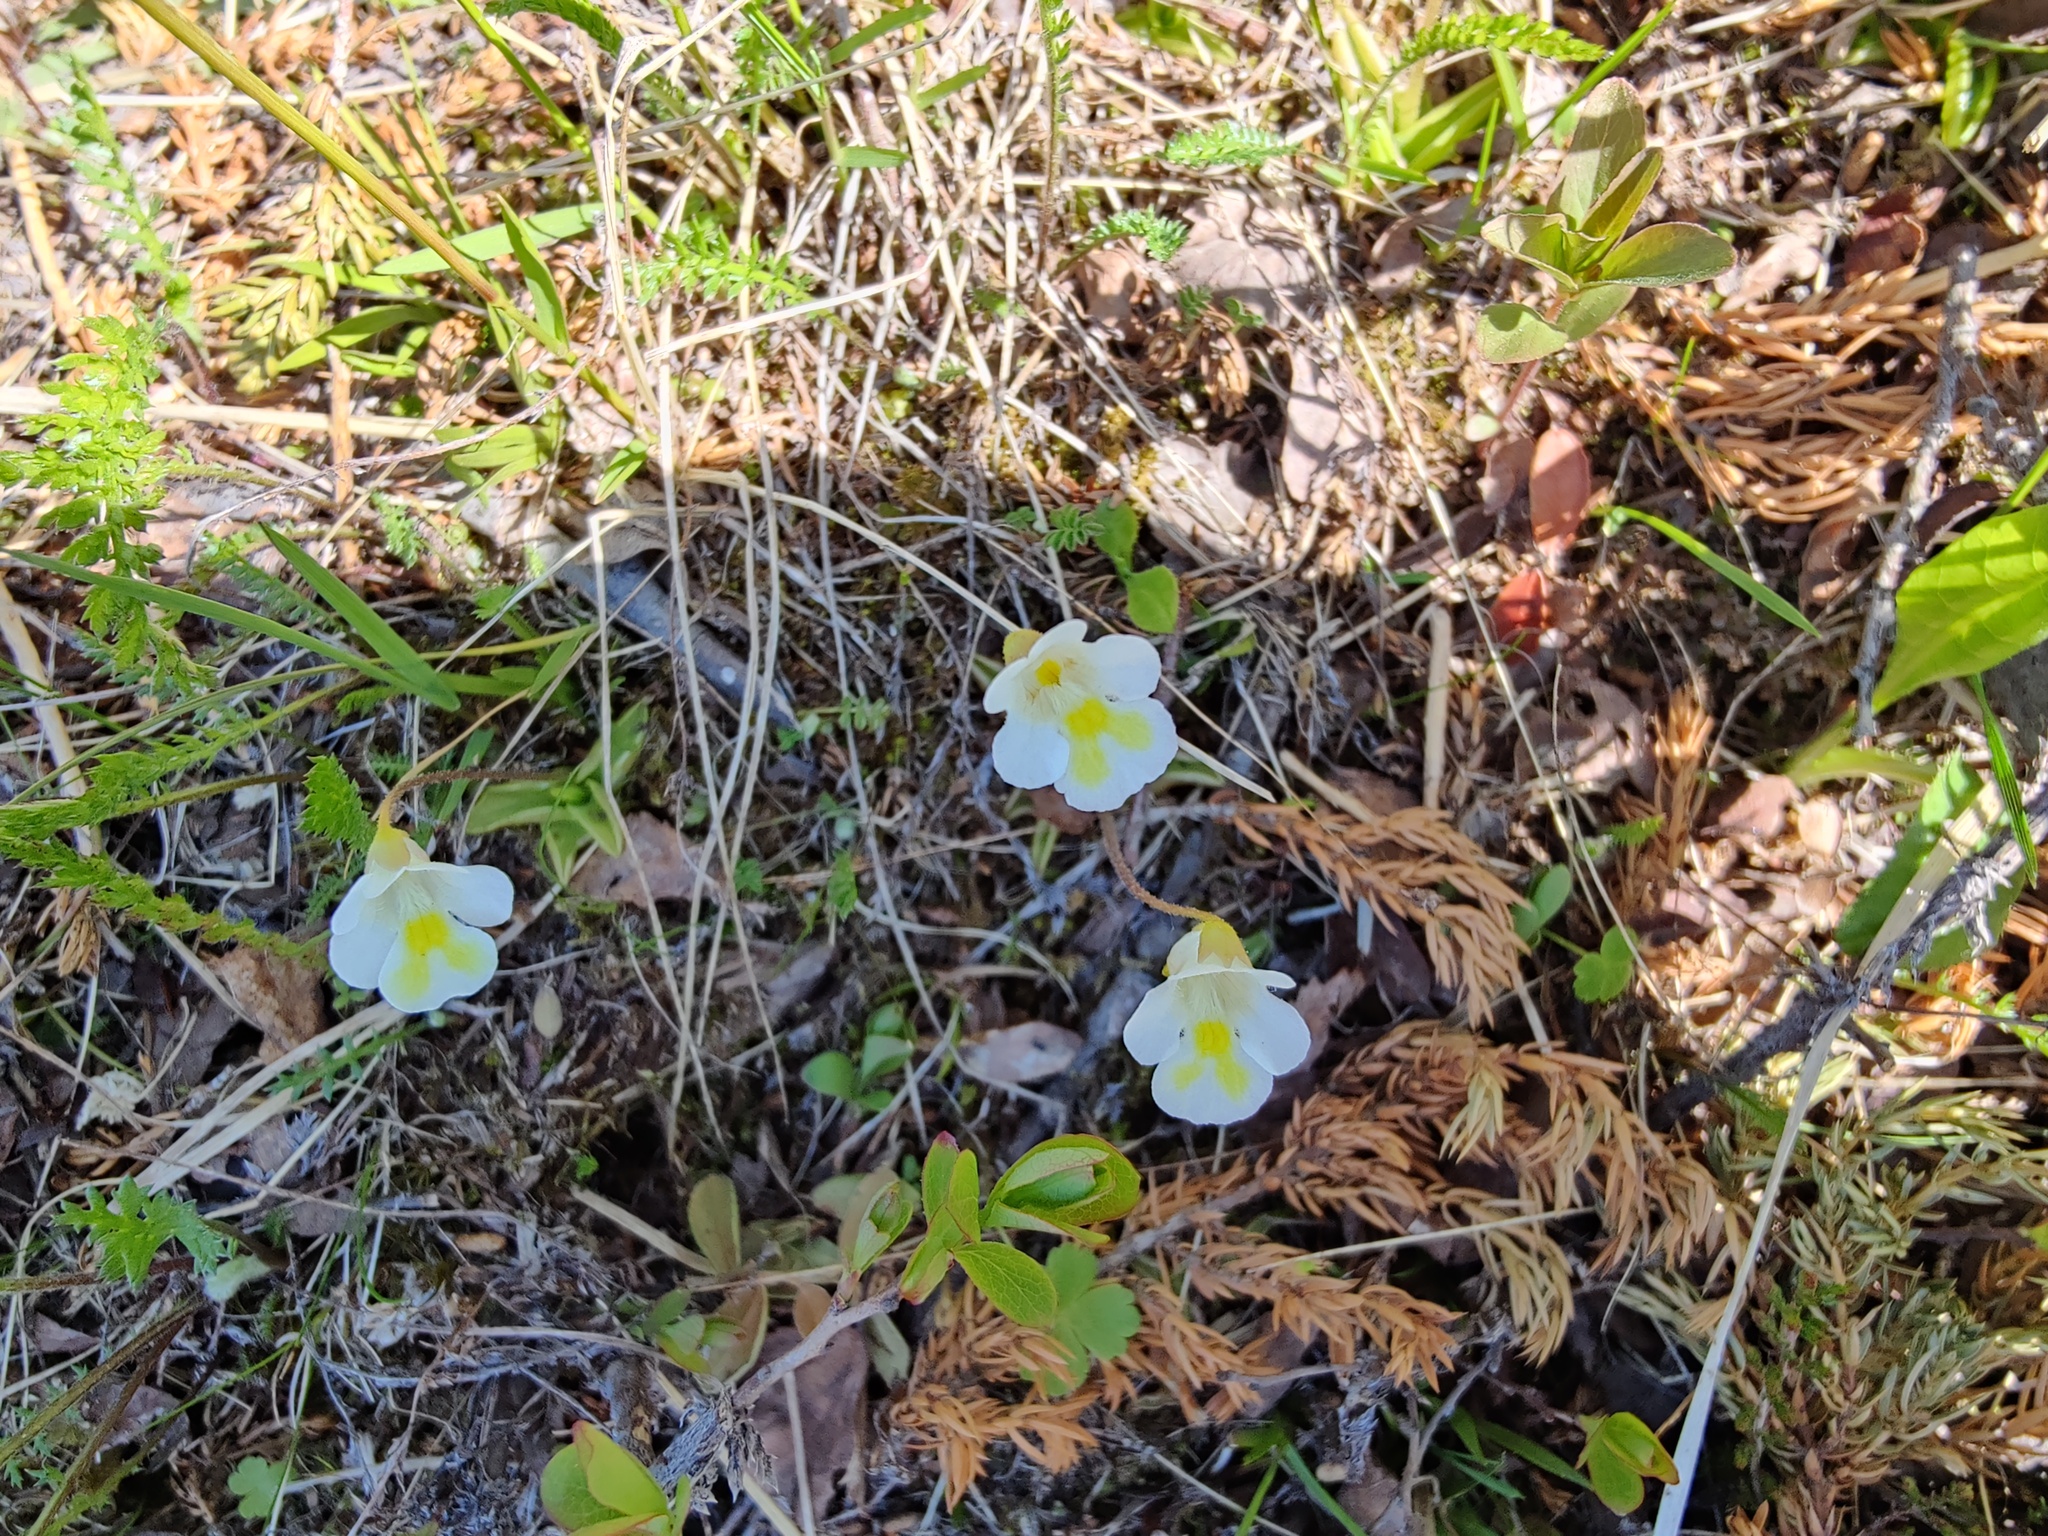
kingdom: Plantae
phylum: Tracheophyta
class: Magnoliopsida
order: Lamiales
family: Lentibulariaceae
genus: Pinguicula
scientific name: Pinguicula alpina
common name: Alpine butterwort
